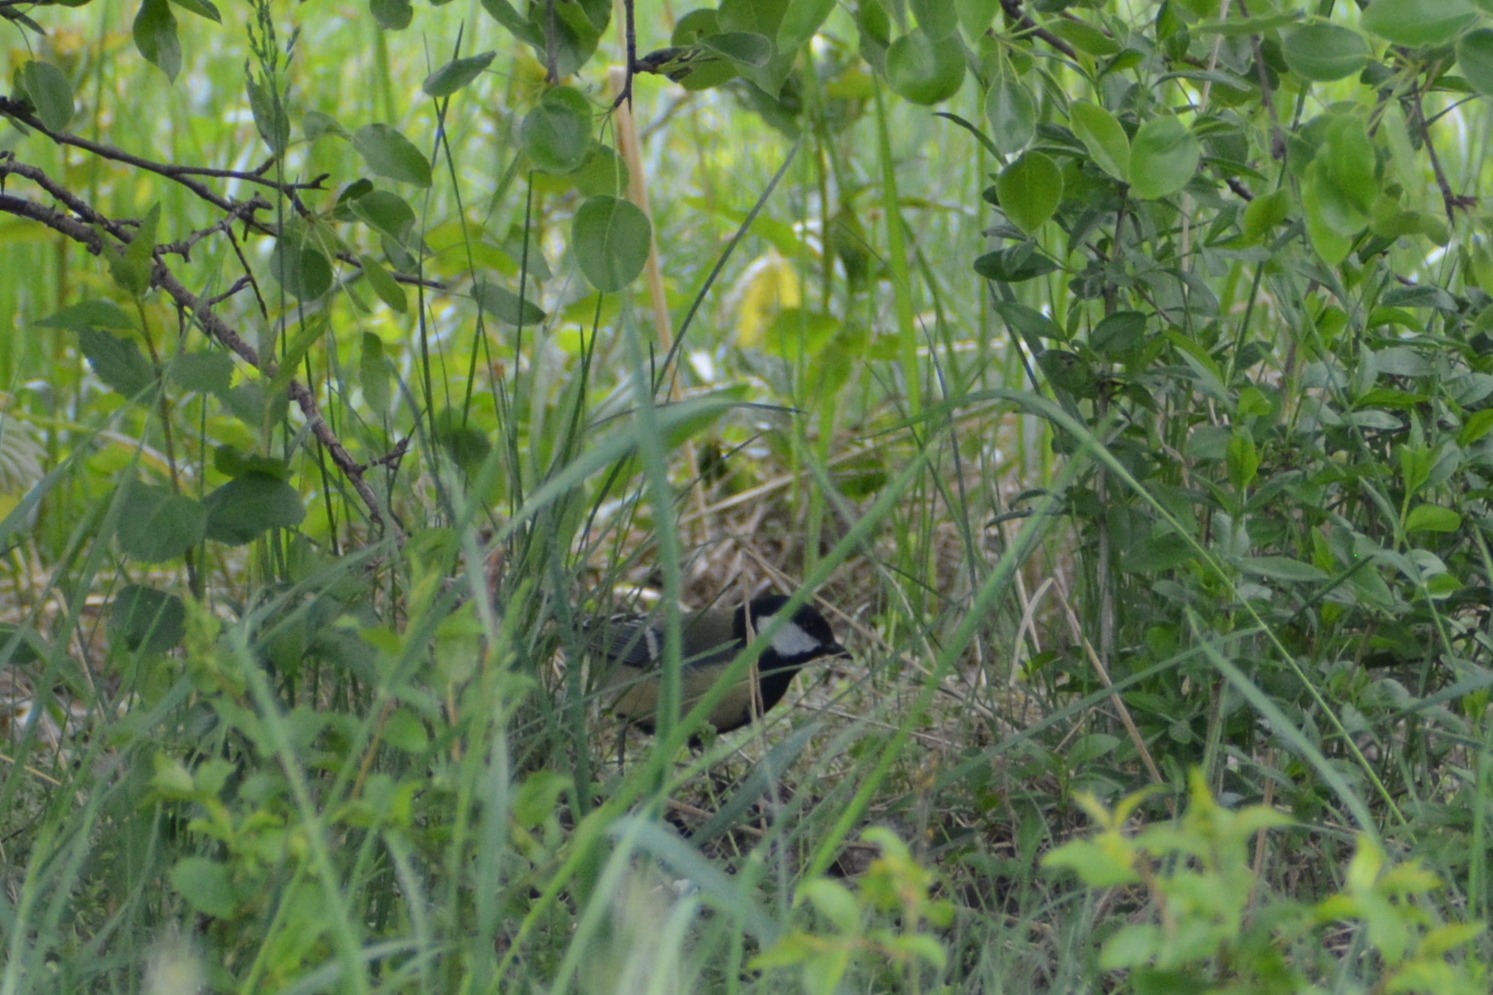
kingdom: Animalia
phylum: Chordata
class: Aves
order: Passeriformes
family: Paridae
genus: Parus
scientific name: Parus major
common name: Great tit
